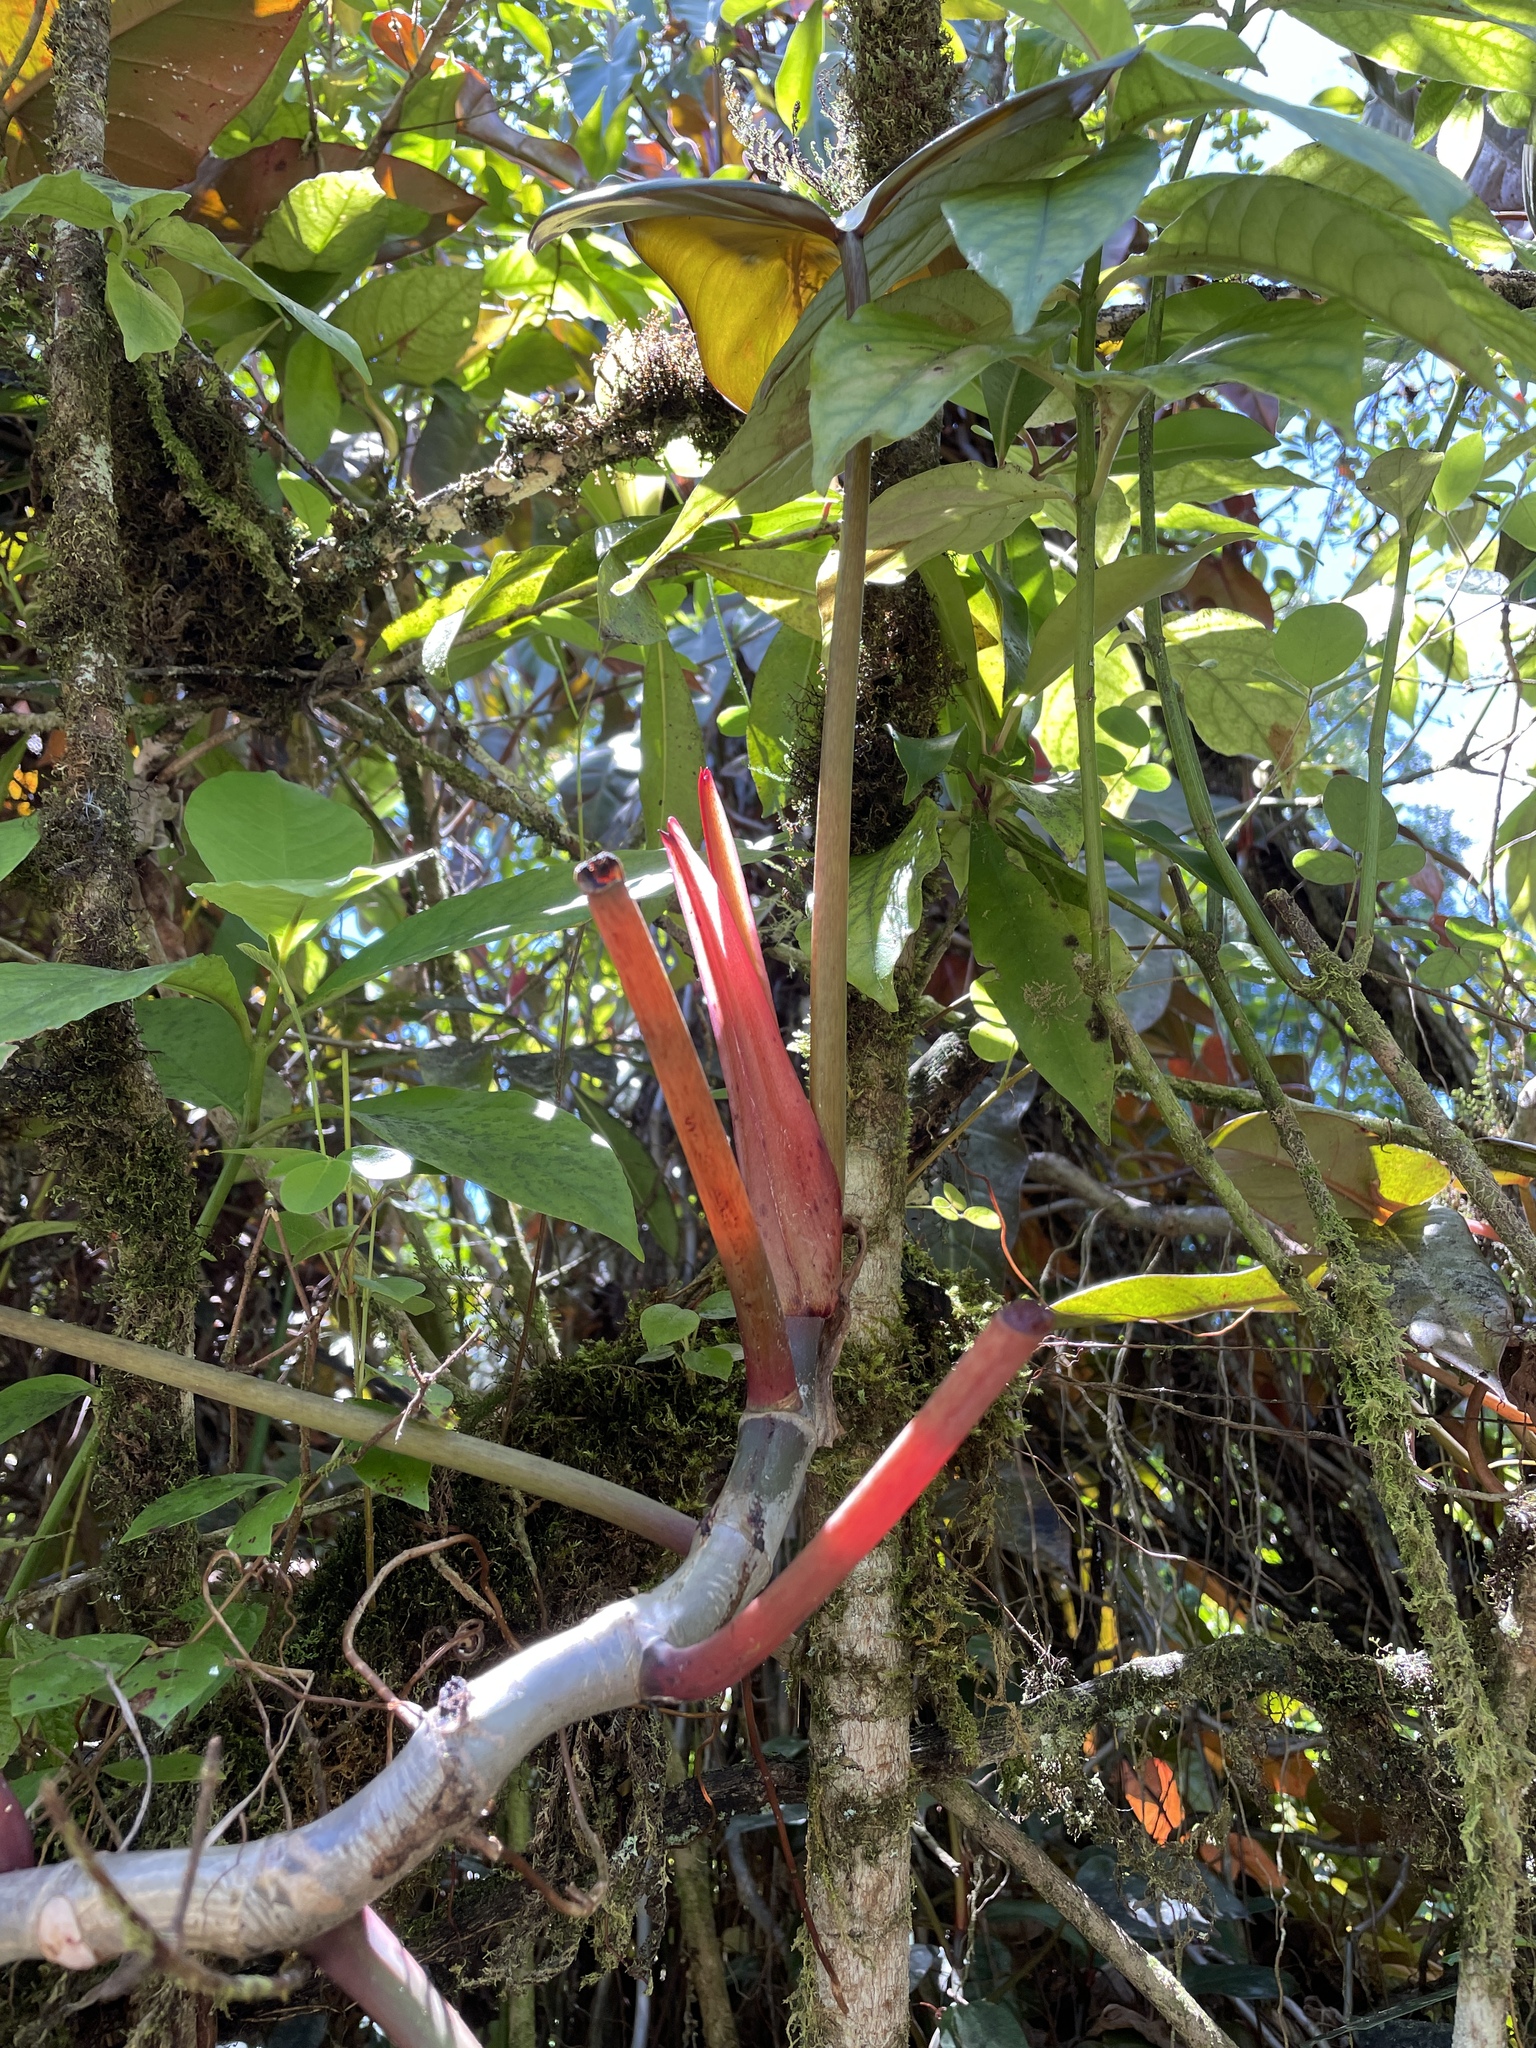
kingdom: Plantae
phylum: Tracheophyta
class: Liliopsida
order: Alismatales
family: Araceae
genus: Philodendron
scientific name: Philodendron erubescens
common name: Philodendron
